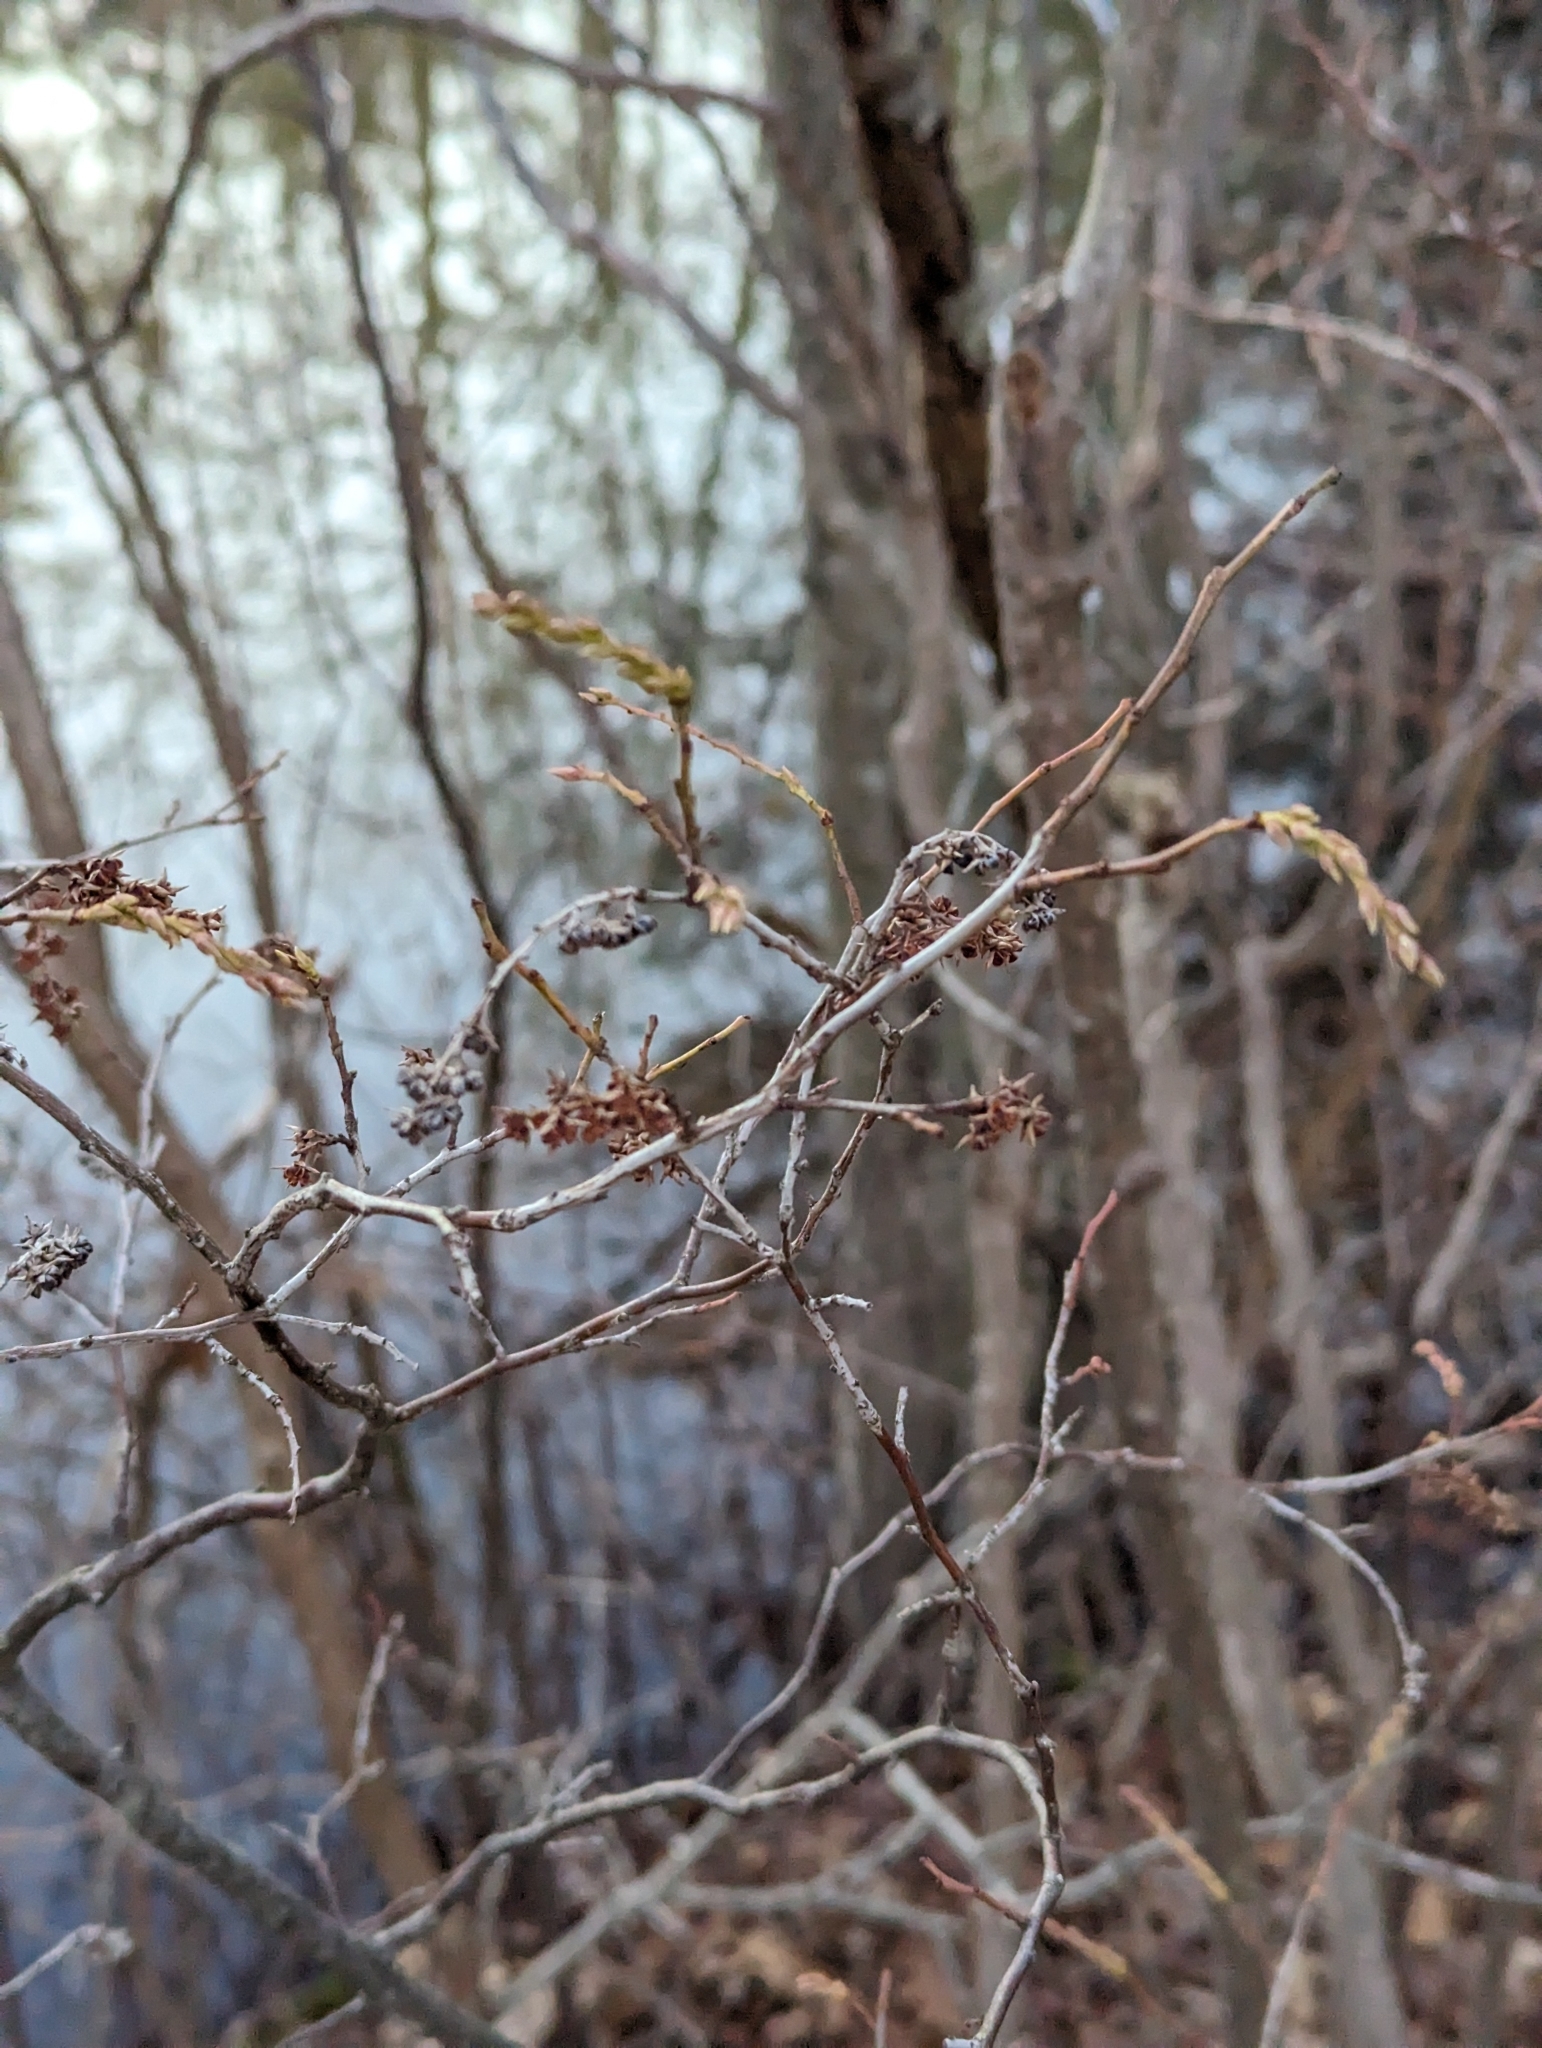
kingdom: Plantae
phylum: Tracheophyta
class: Magnoliopsida
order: Ericales
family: Ericaceae
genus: Eubotrys
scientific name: Eubotrys racemosa
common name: Fetterbush
